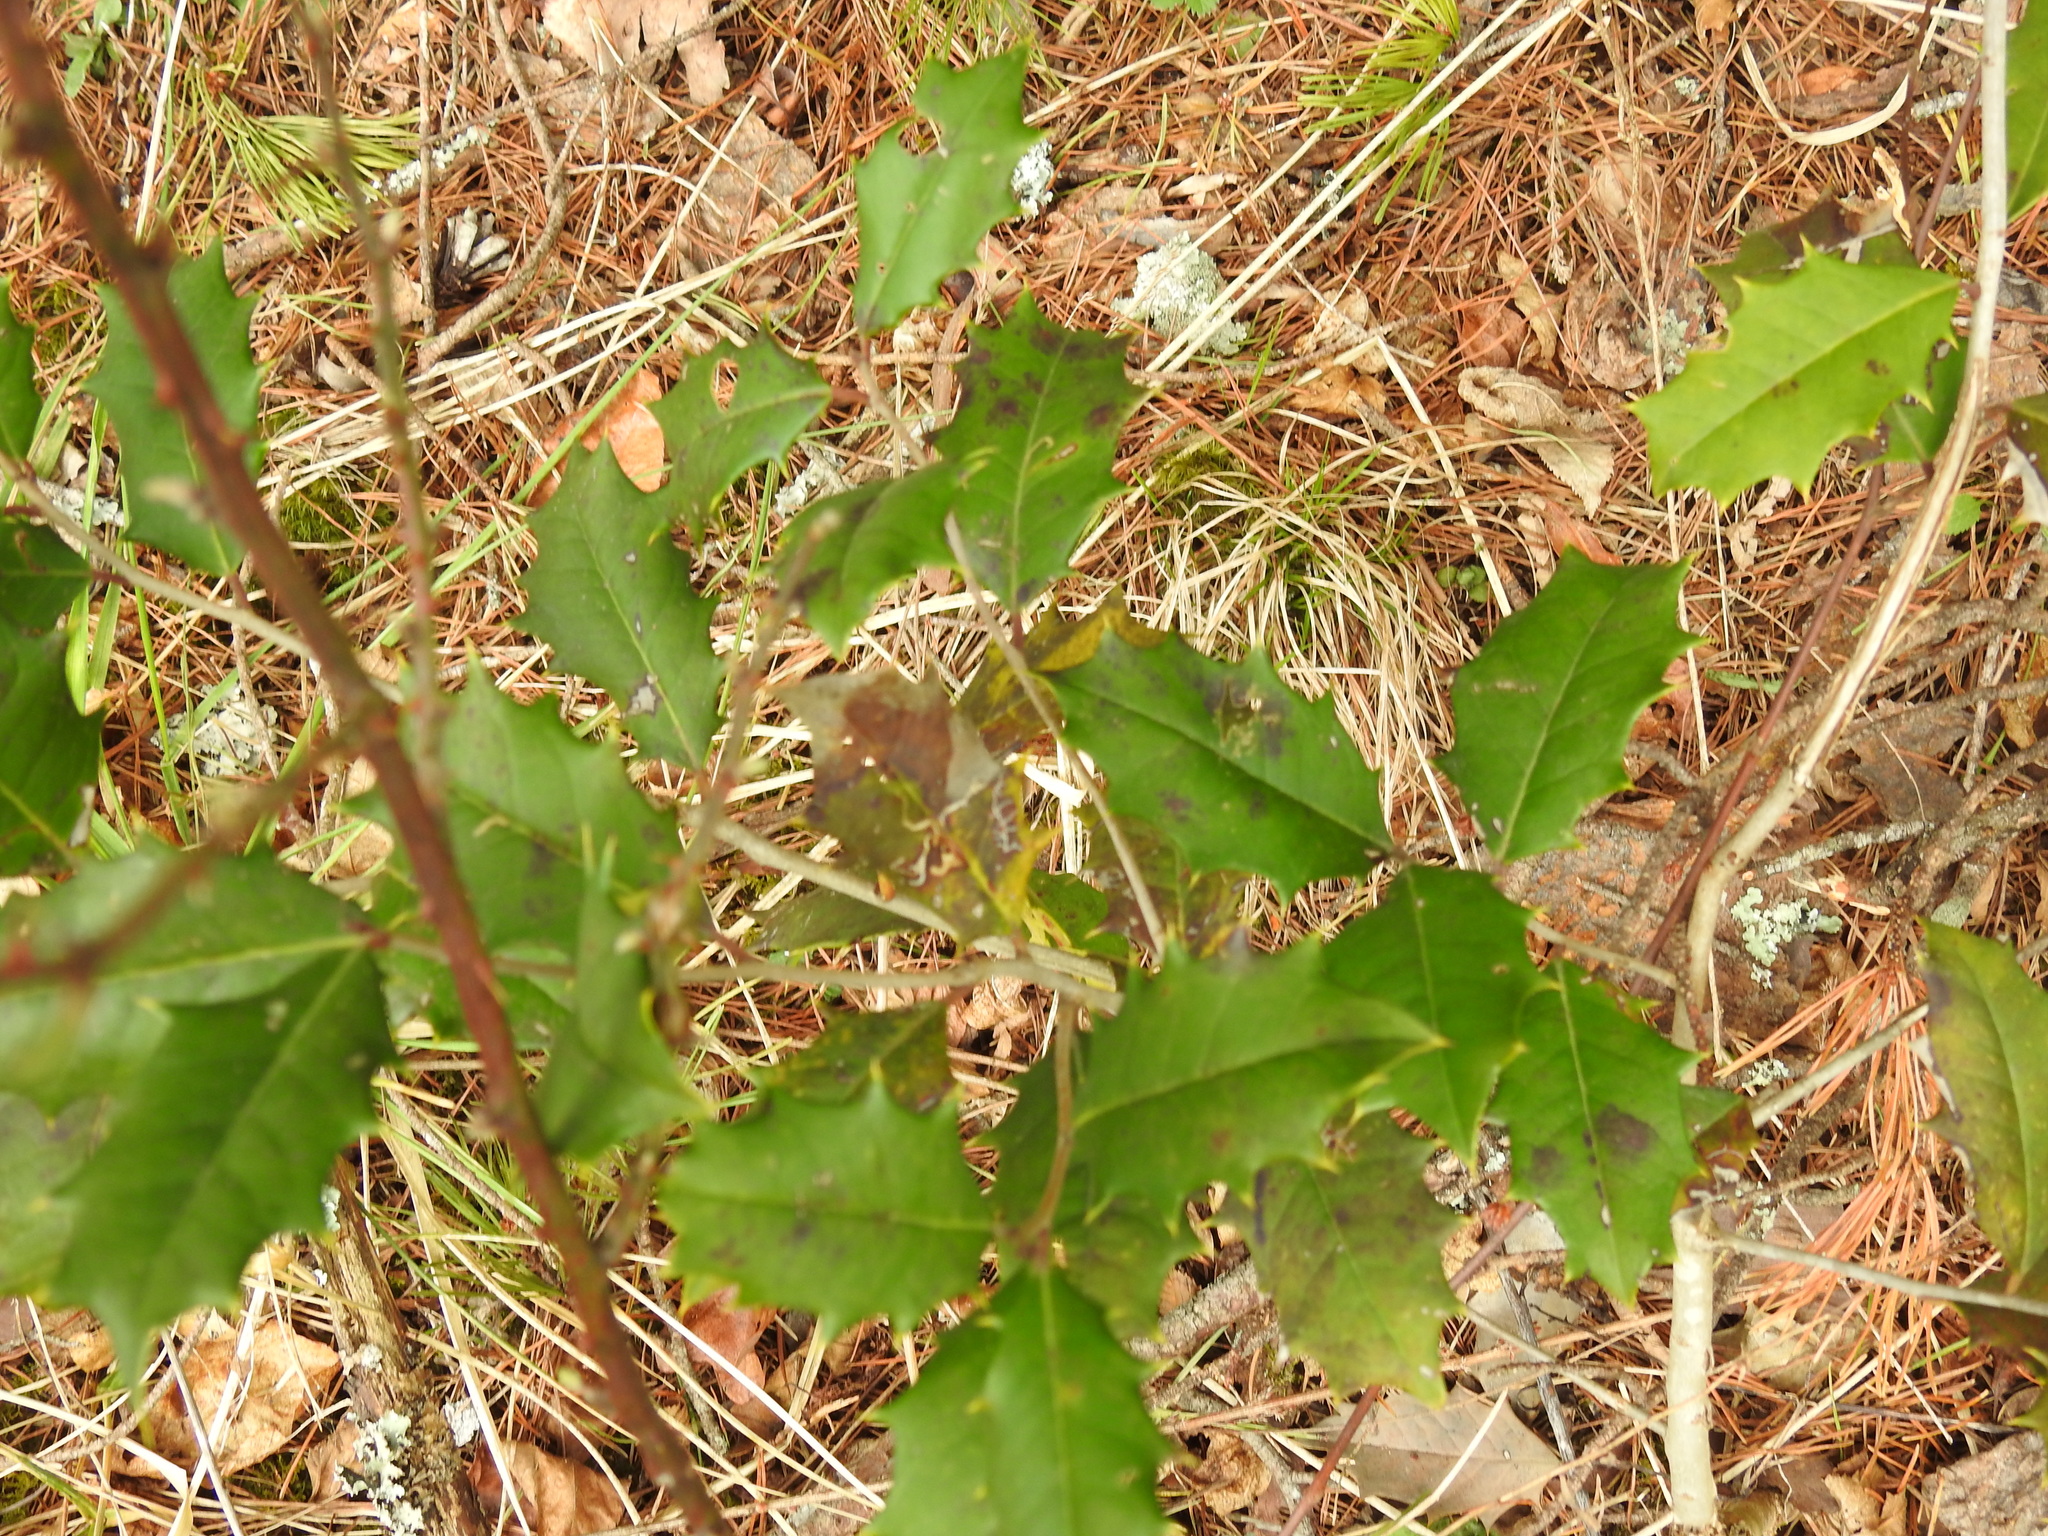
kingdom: Plantae
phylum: Tracheophyta
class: Magnoliopsida
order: Aquifoliales
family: Aquifoliaceae
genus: Ilex
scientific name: Ilex opaca
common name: American holly
